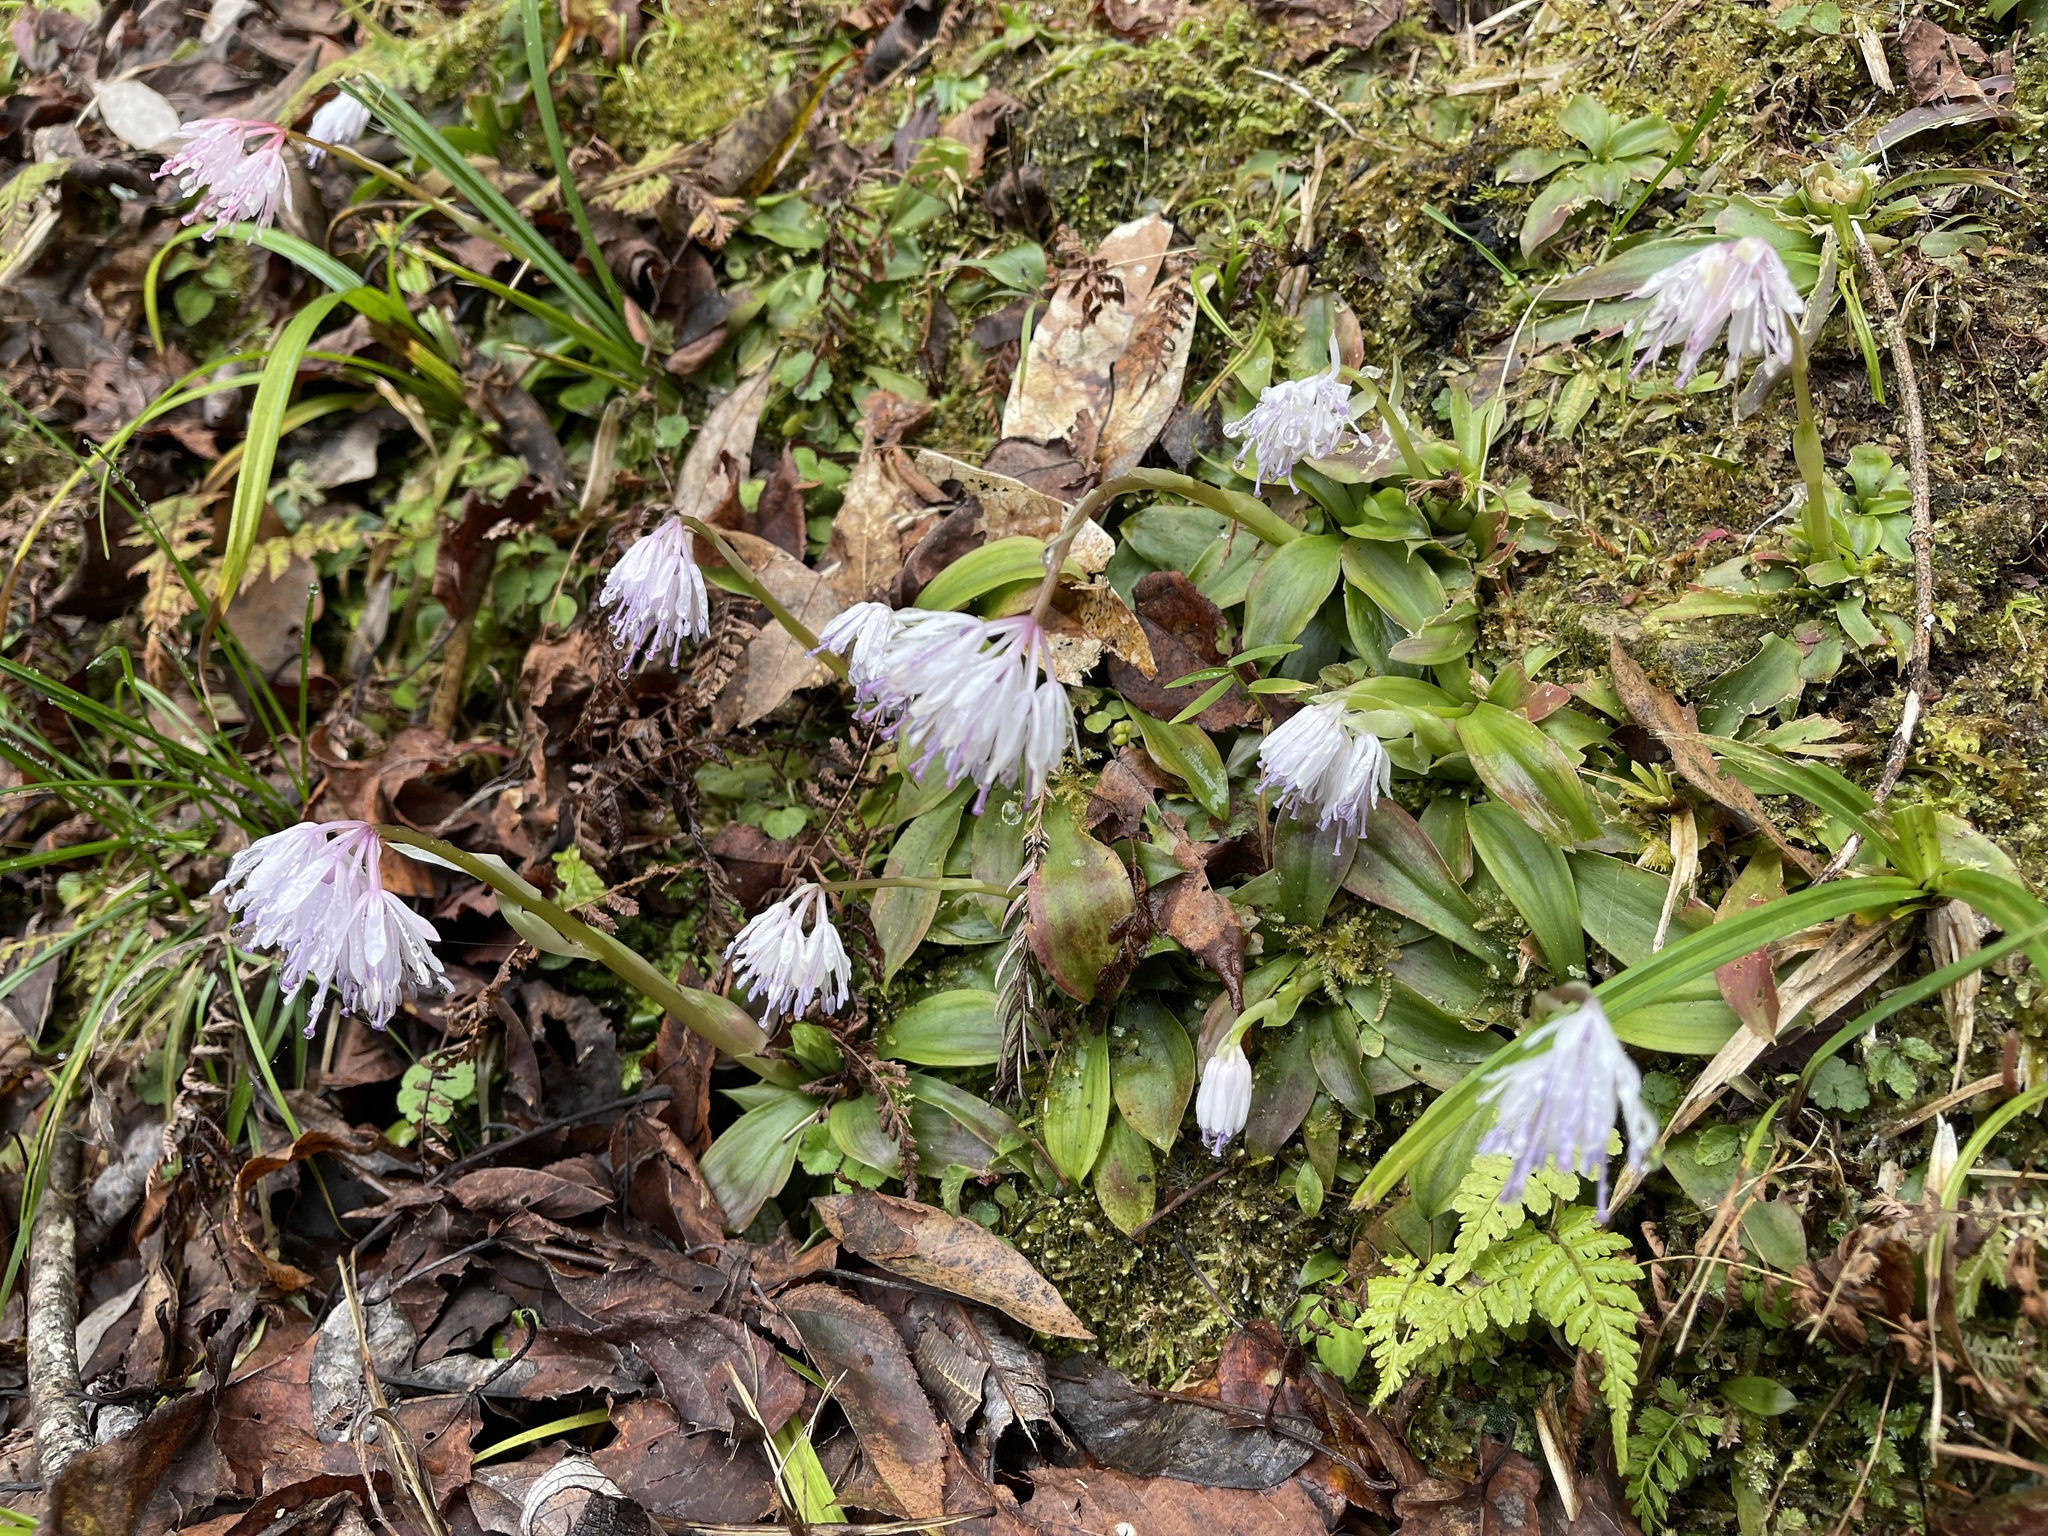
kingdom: Plantae
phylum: Tracheophyta
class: Liliopsida
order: Liliales
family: Melanthiaceae
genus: Helonias
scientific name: Helonias umbellata
